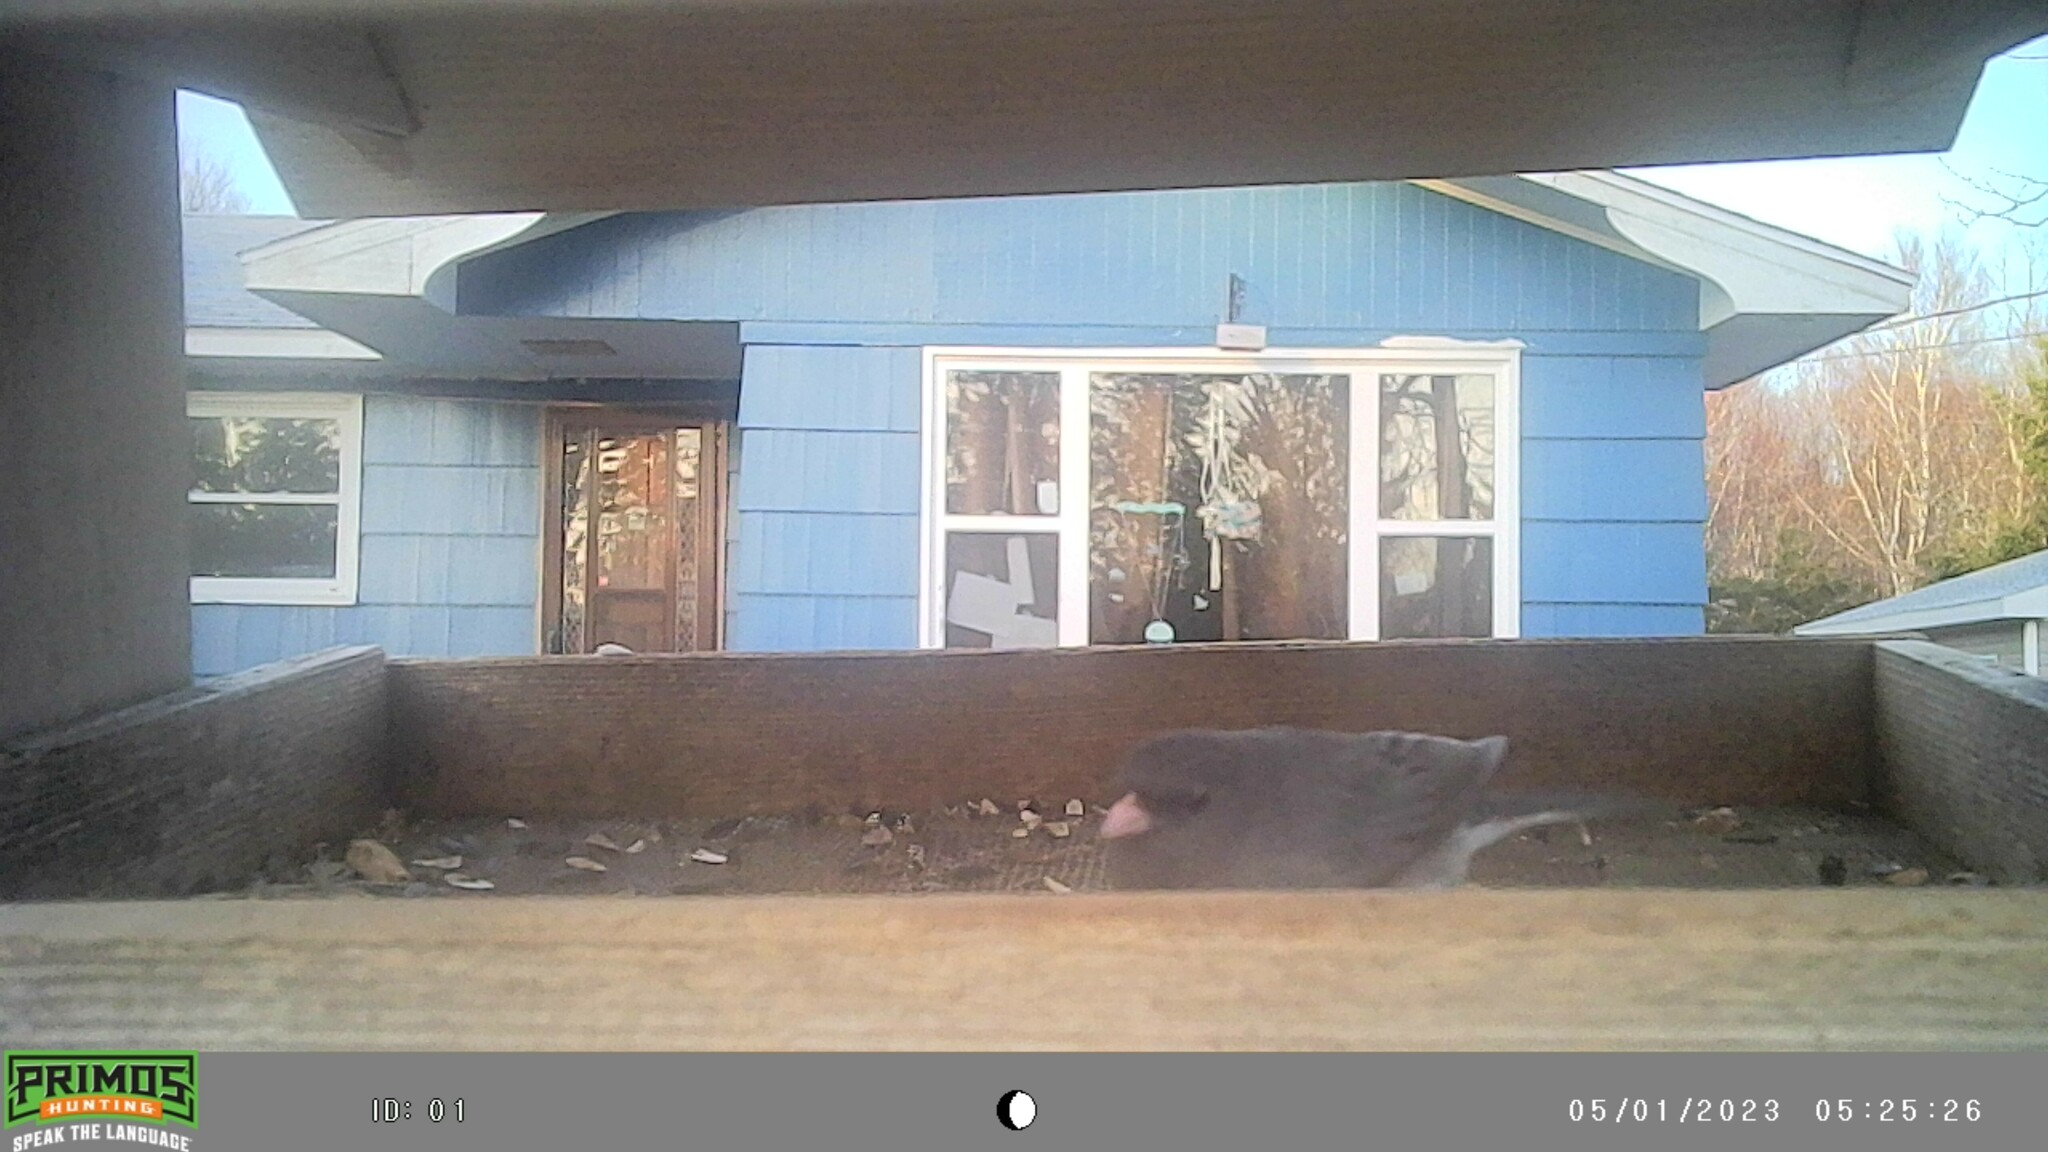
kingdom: Animalia
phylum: Chordata
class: Aves
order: Passeriformes
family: Passerellidae
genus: Junco
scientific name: Junco hyemalis
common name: Dark-eyed junco
